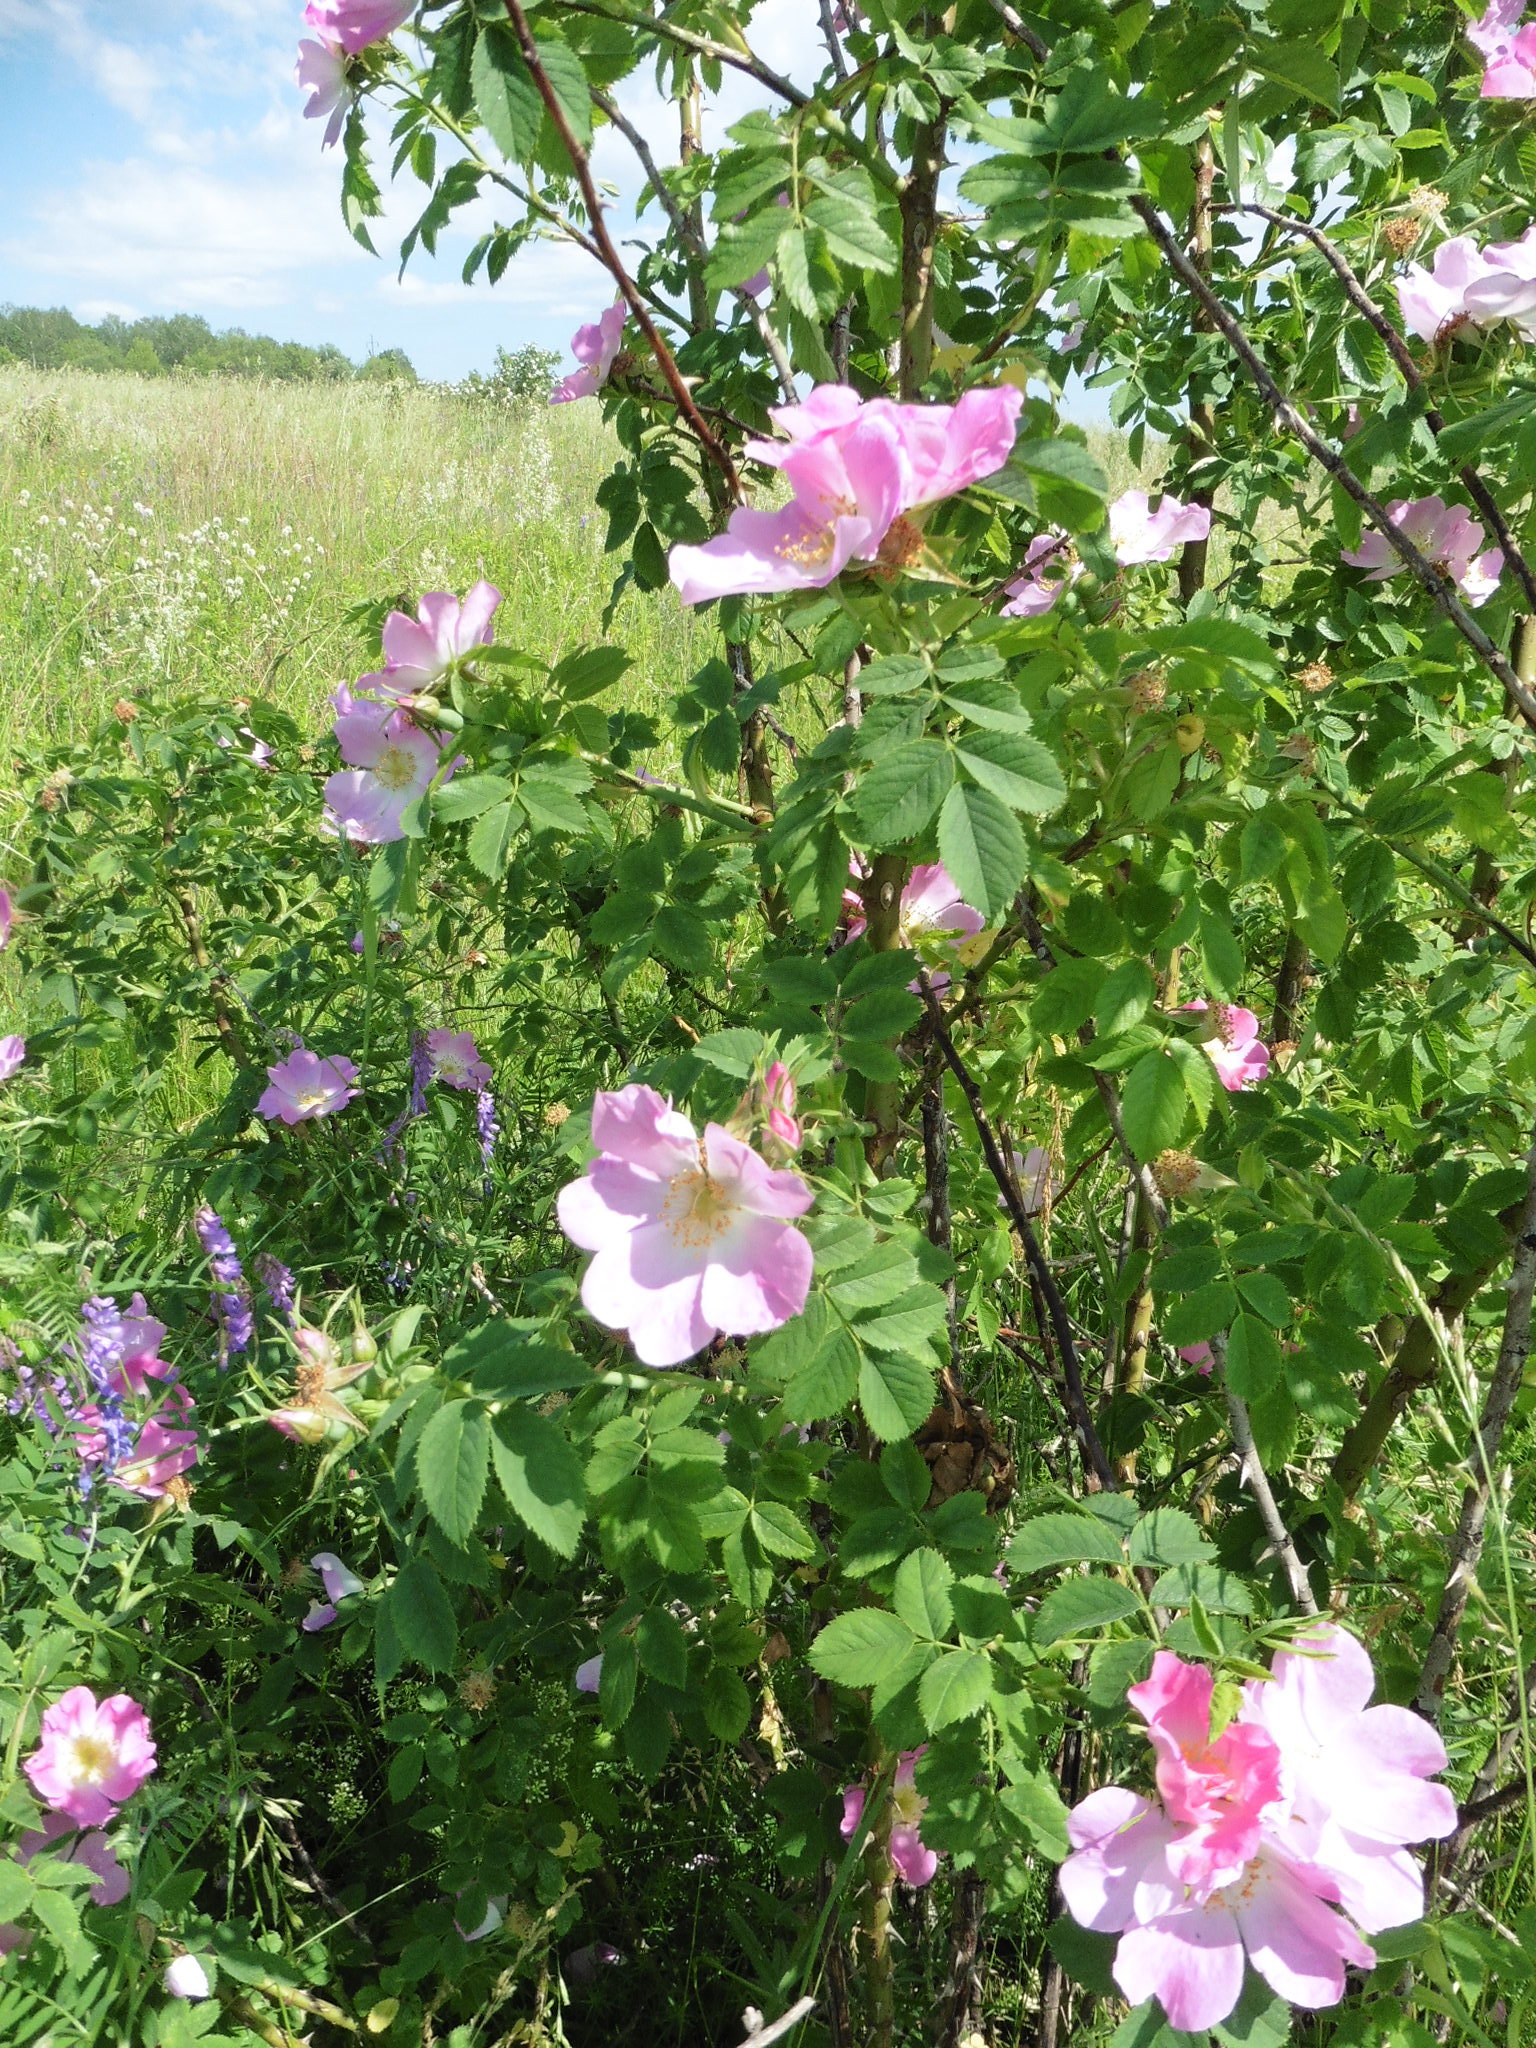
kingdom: Plantae
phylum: Tracheophyta
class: Magnoliopsida
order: Rosales
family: Rosaceae
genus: Rosa
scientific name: Rosa
